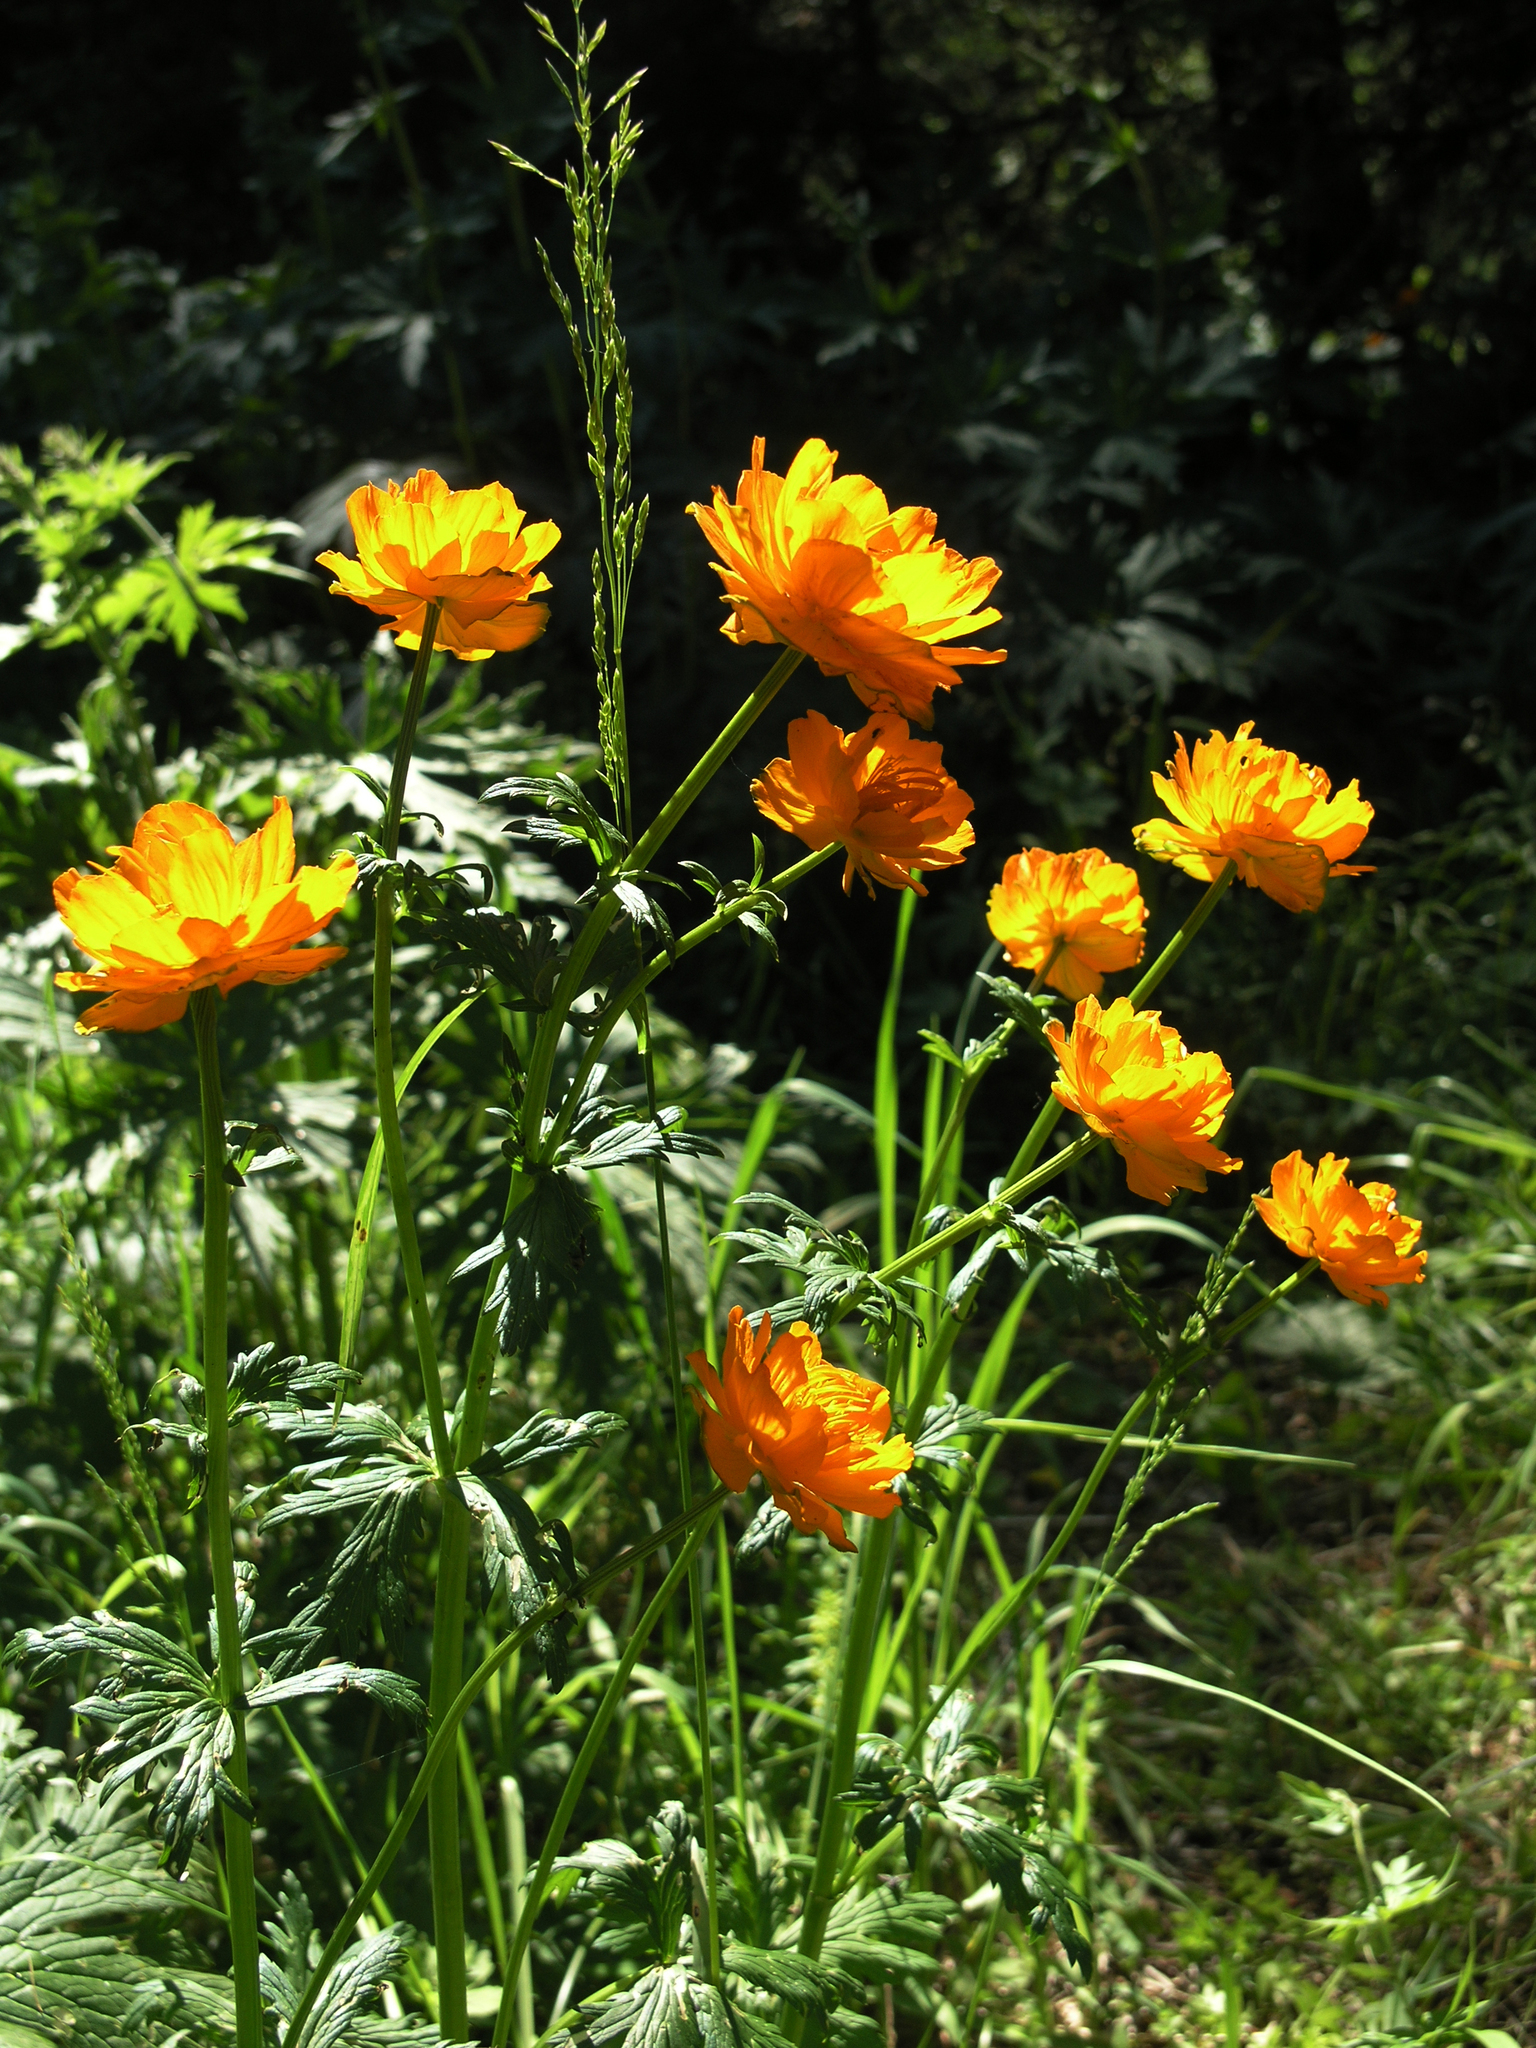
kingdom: Plantae
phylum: Tracheophyta
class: Magnoliopsida
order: Ranunculales
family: Ranunculaceae
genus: Trollius
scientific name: Trollius asiaticus
